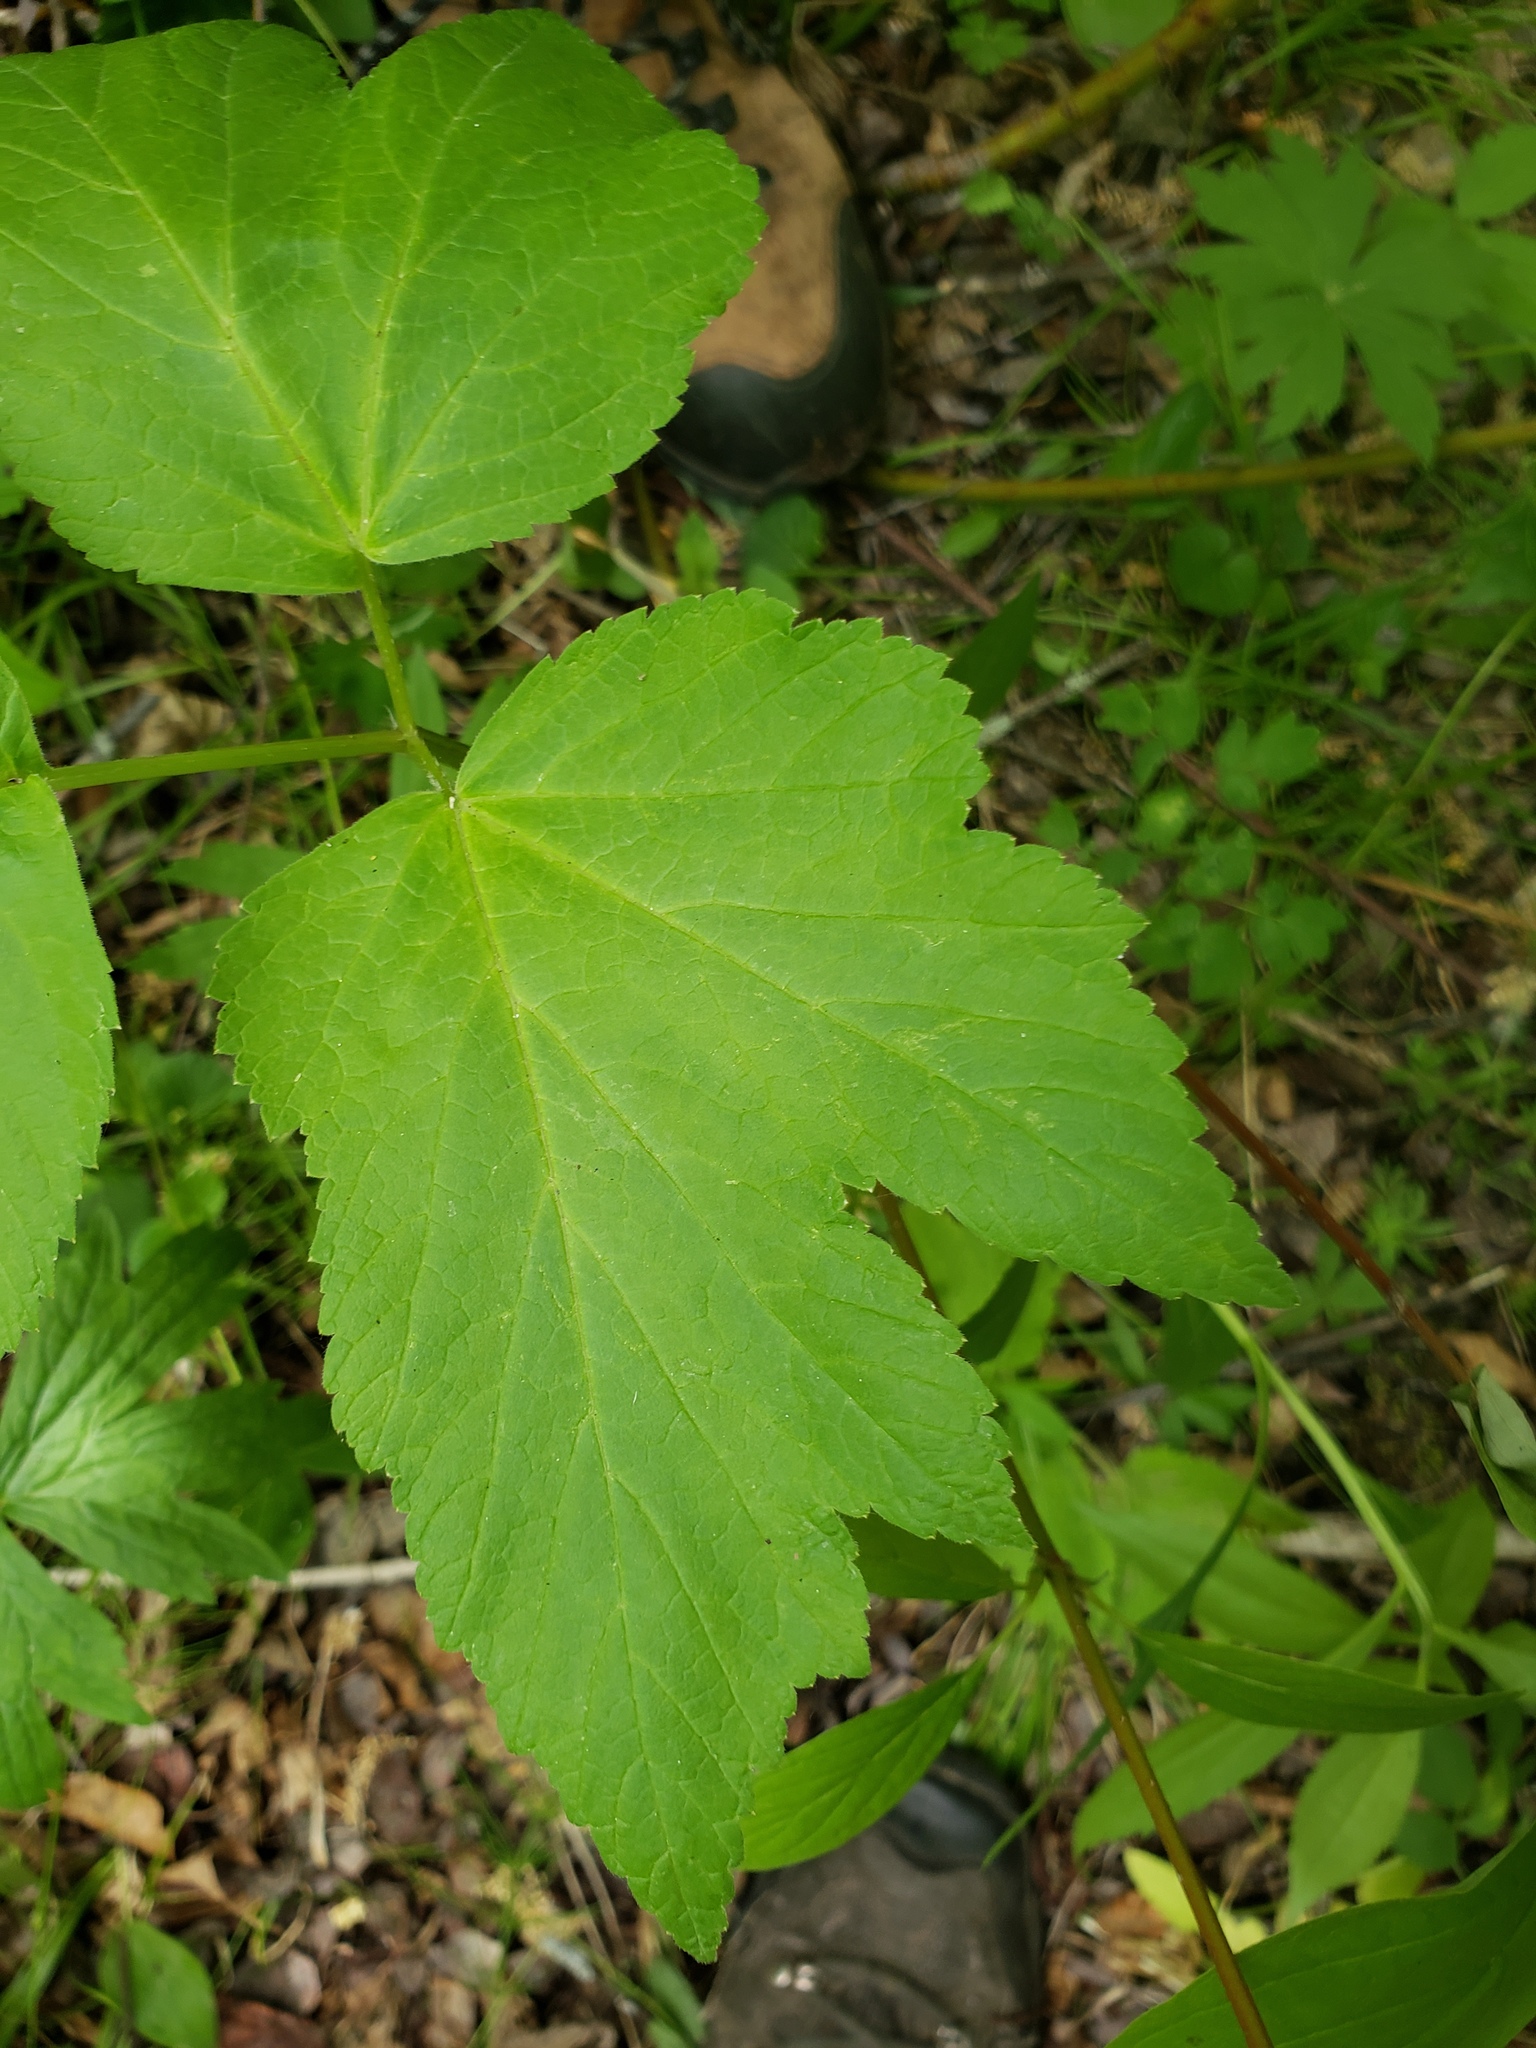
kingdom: Plantae
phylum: Tracheophyta
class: Magnoliopsida
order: Apiales
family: Apiaceae
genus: Heracleum
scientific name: Heracleum maximum
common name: American cow parsnip
